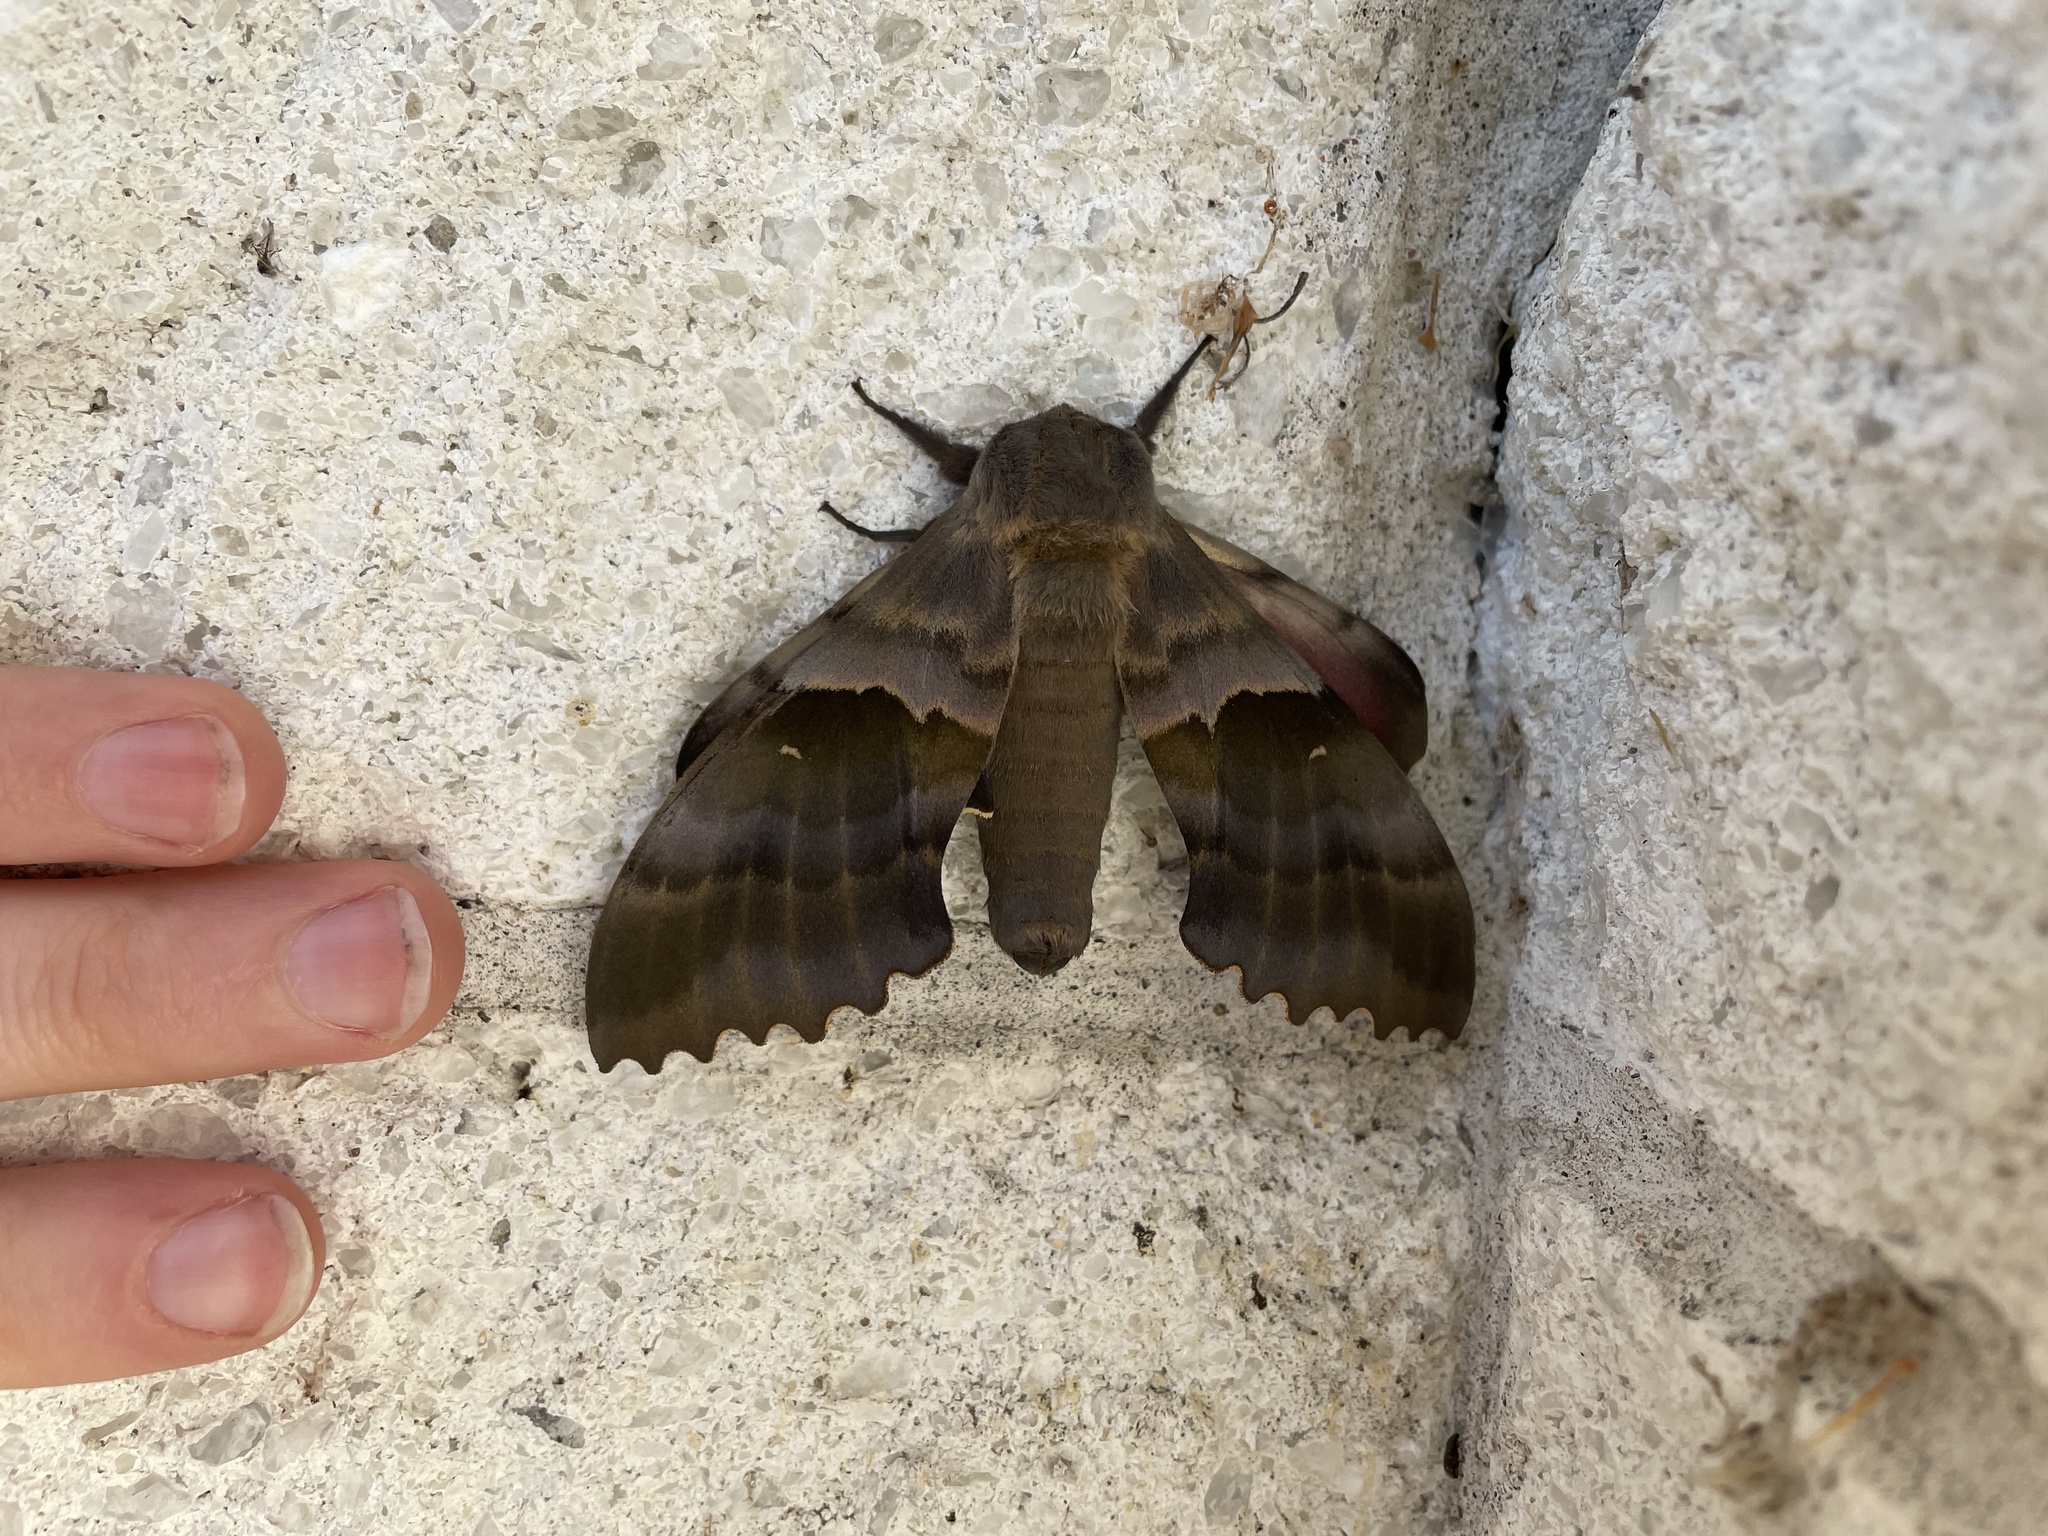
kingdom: Animalia
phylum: Arthropoda
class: Insecta
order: Lepidoptera
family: Sphingidae
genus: Pachysphinx
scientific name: Pachysphinx modesta
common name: Big poplar sphinx
